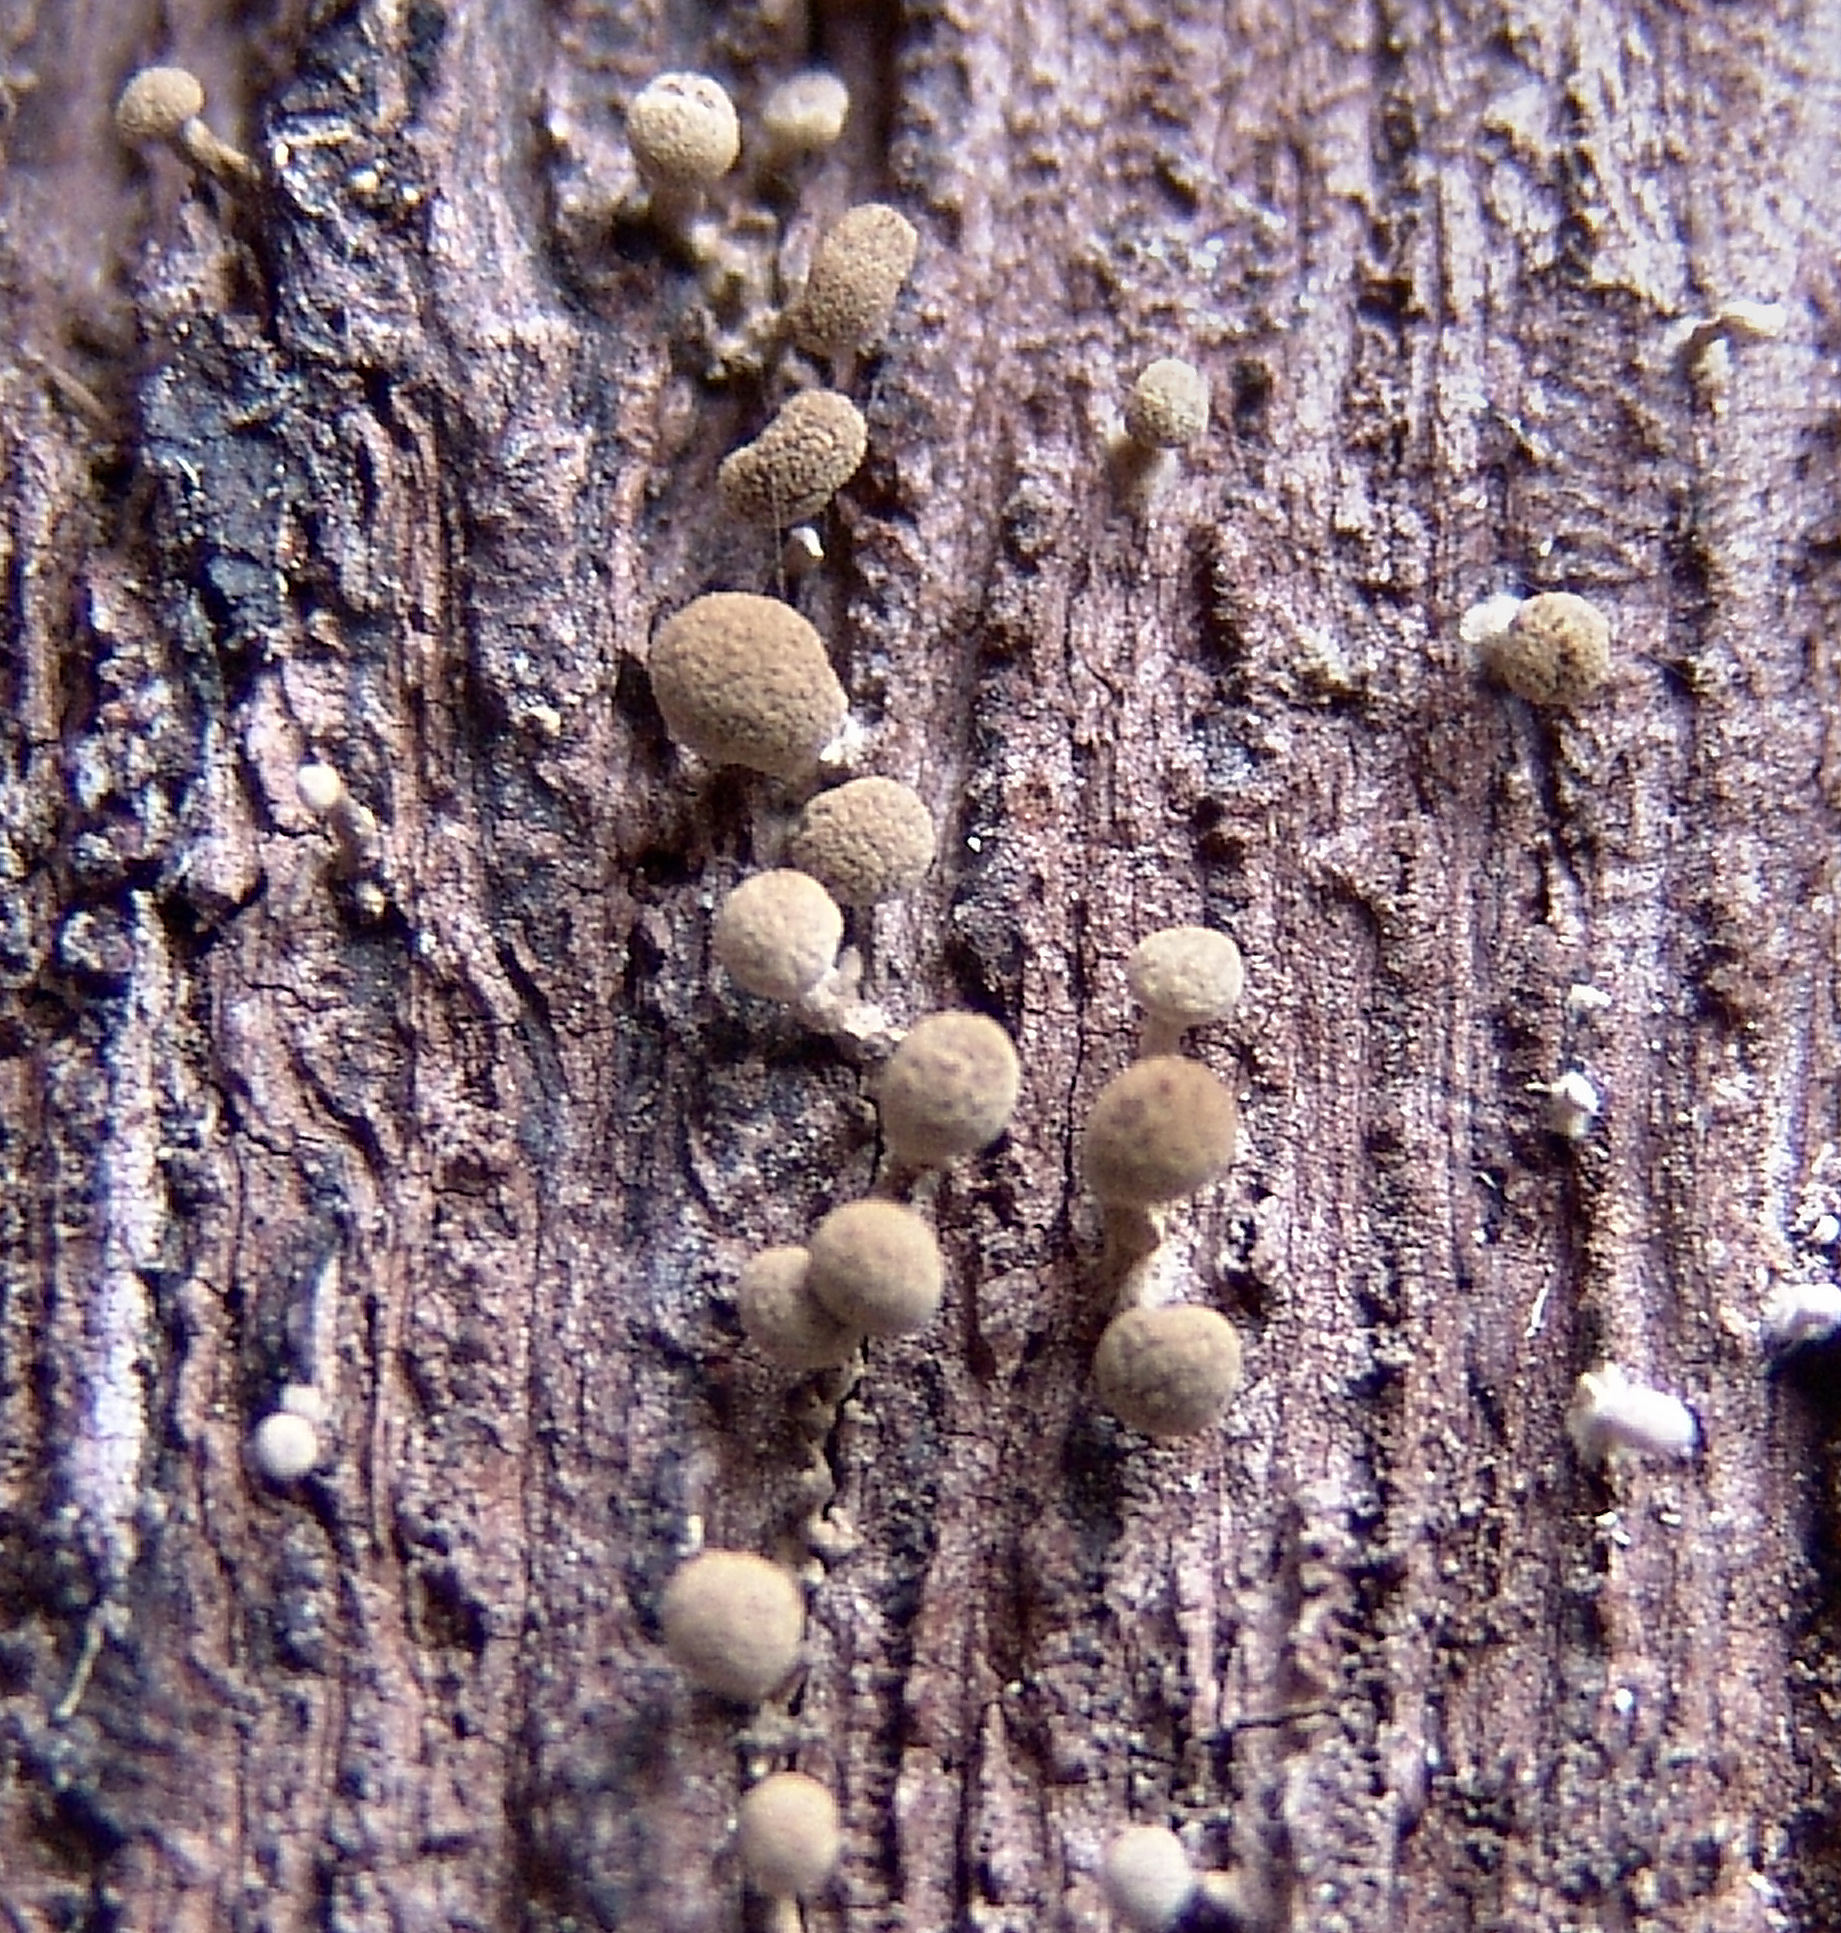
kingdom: Fungi
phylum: Basidiomycota
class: Atractiellomycetes
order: Atractiellales
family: Phleogenaceae
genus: Phleogena
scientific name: Phleogena faginea
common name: Fenugreek stalkball
